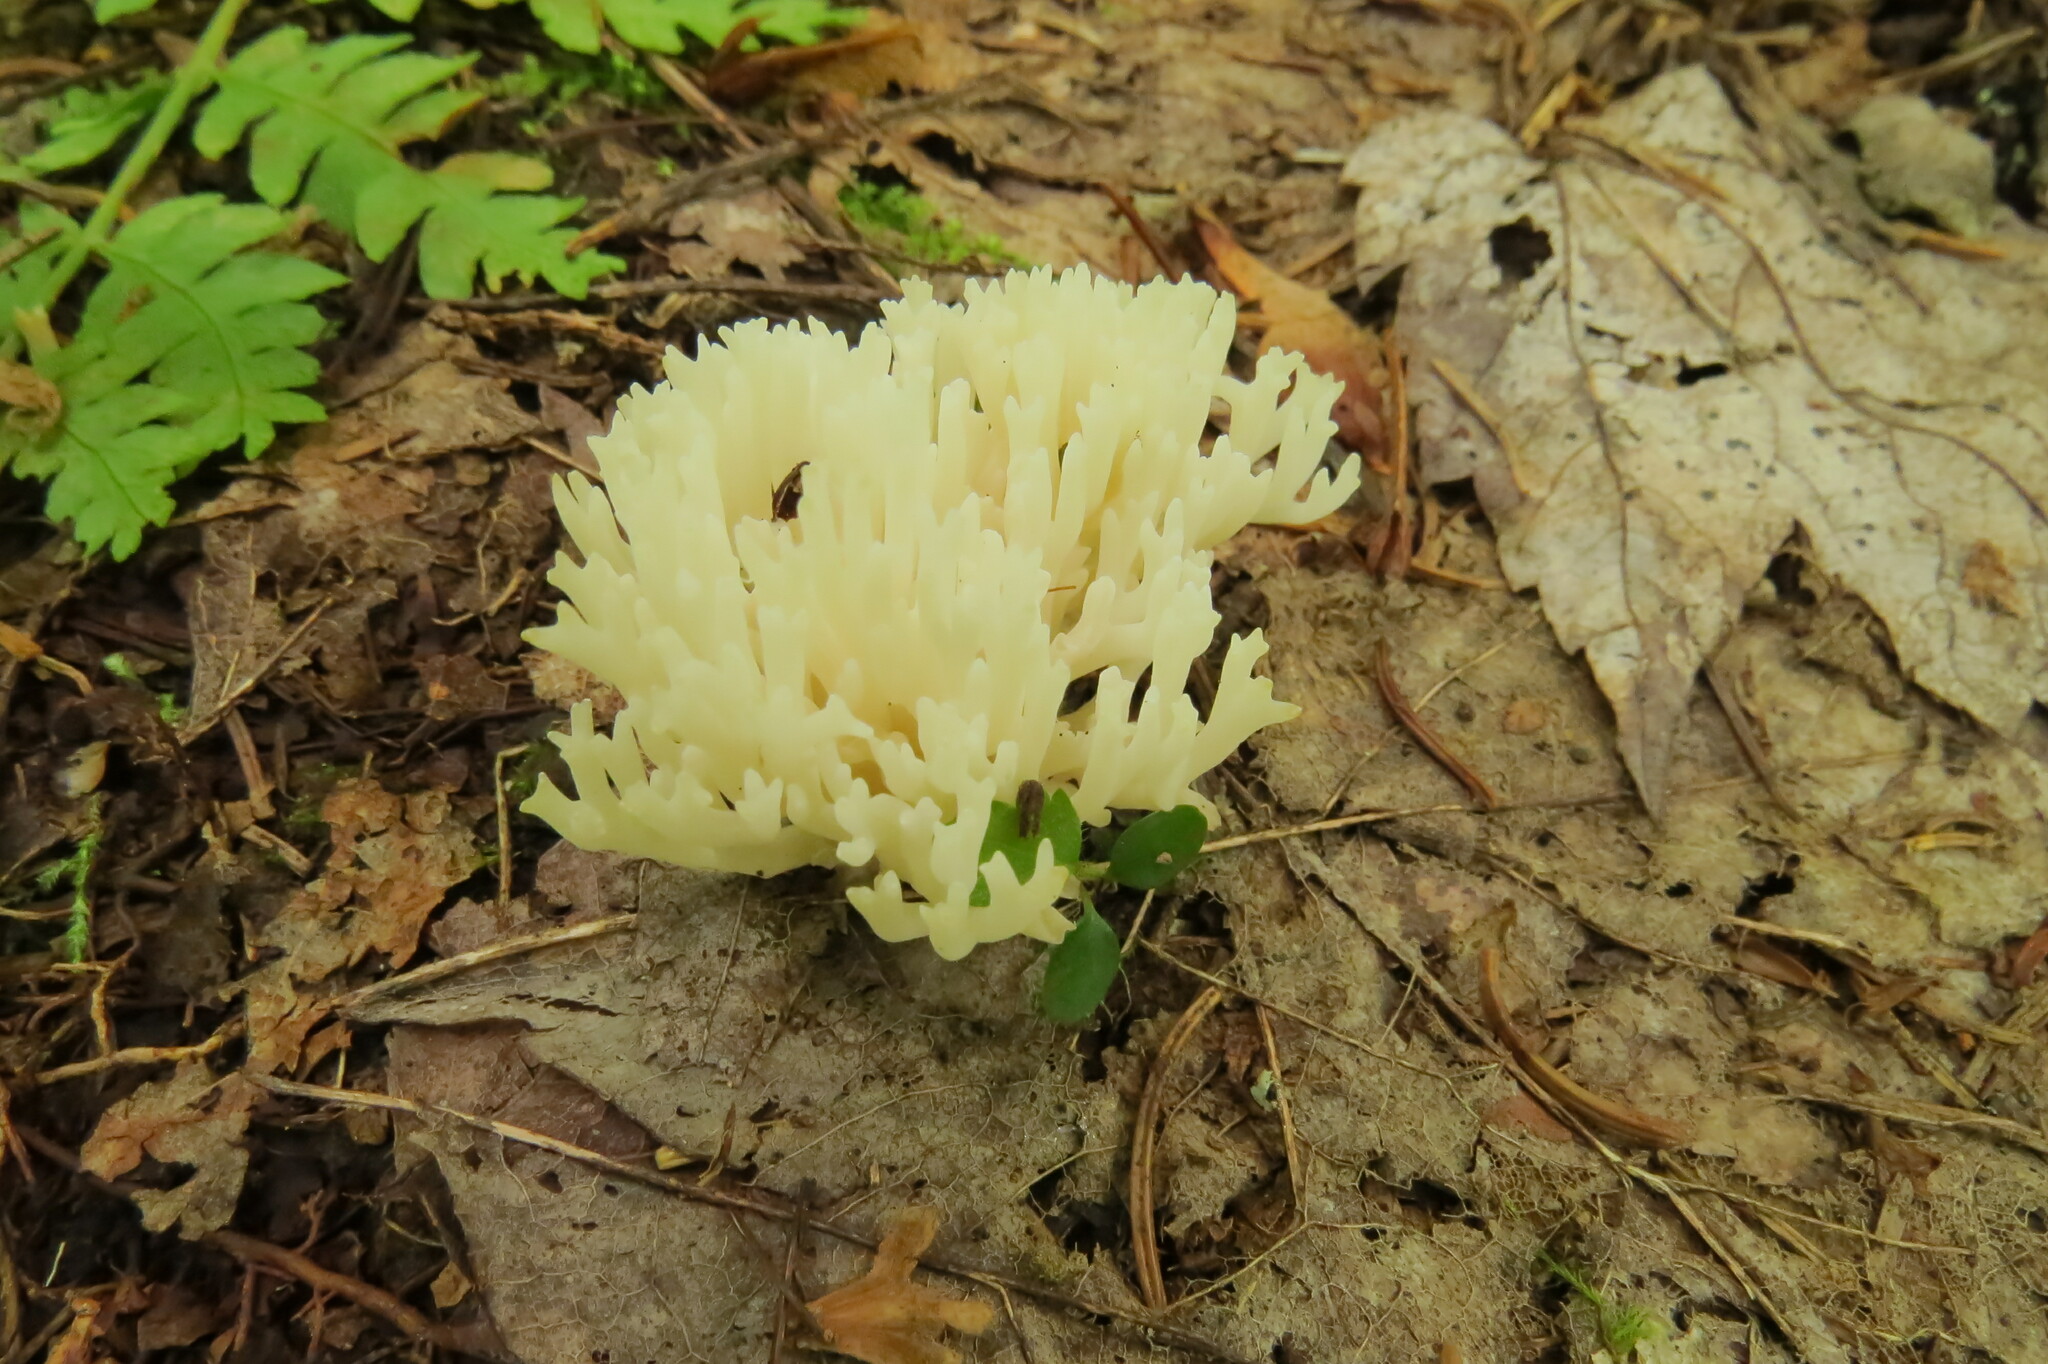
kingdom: Fungi
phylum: Basidiomycota
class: Agaricomycetes
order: Agaricales
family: Clavariaceae
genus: Ramariopsis
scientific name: Ramariopsis kunzei
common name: Ivory coral
